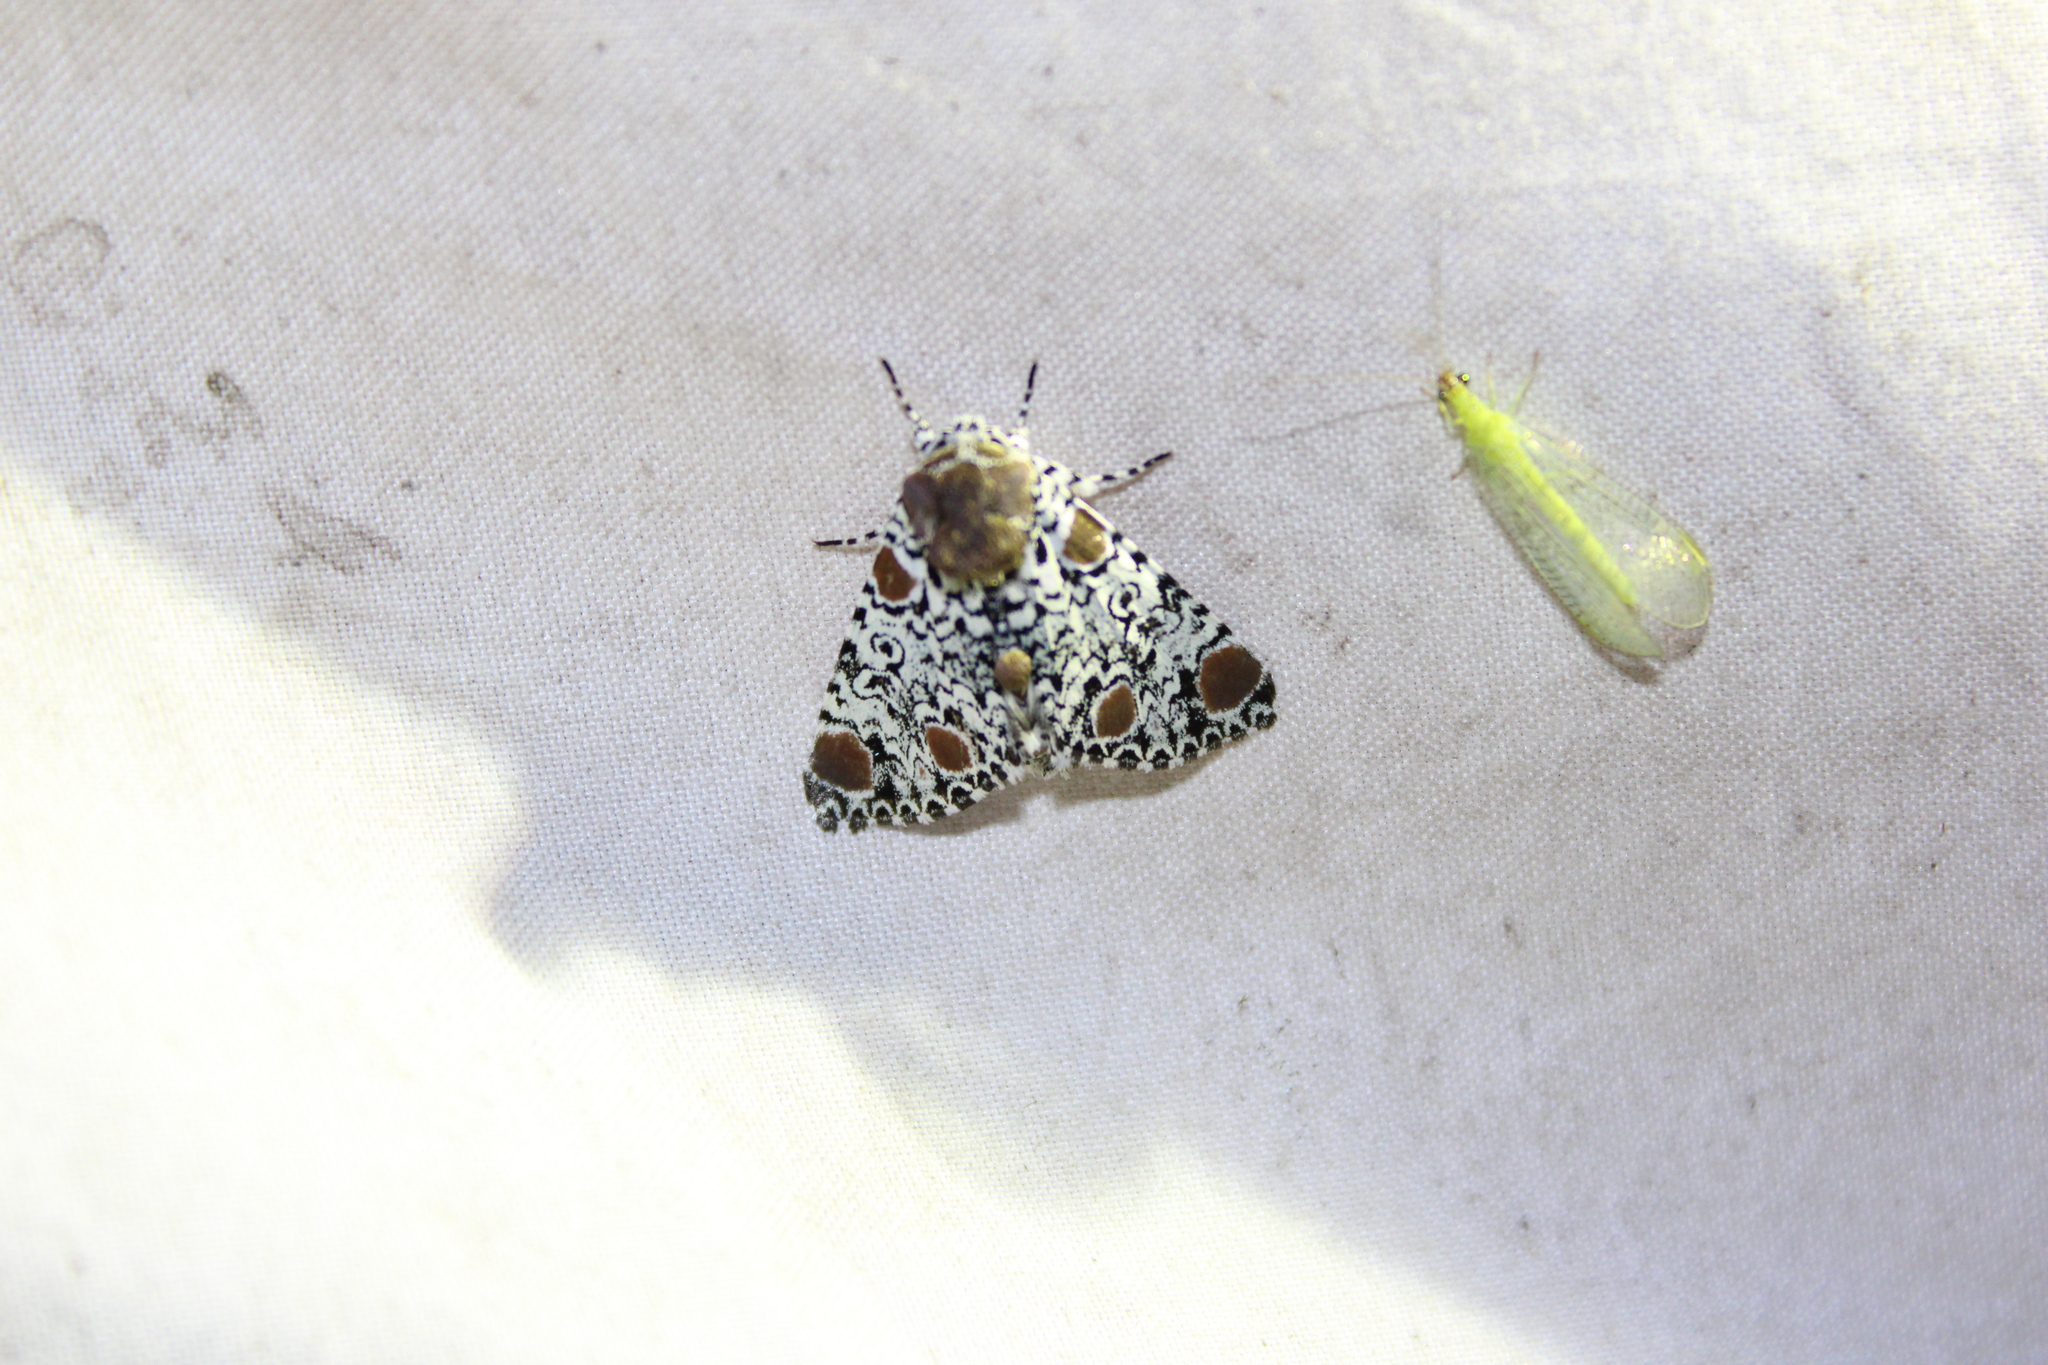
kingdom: Animalia
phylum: Arthropoda
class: Insecta
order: Lepidoptera
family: Noctuidae
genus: Harrisimemna
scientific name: Harrisimemna trisignata
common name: Harris threespot
